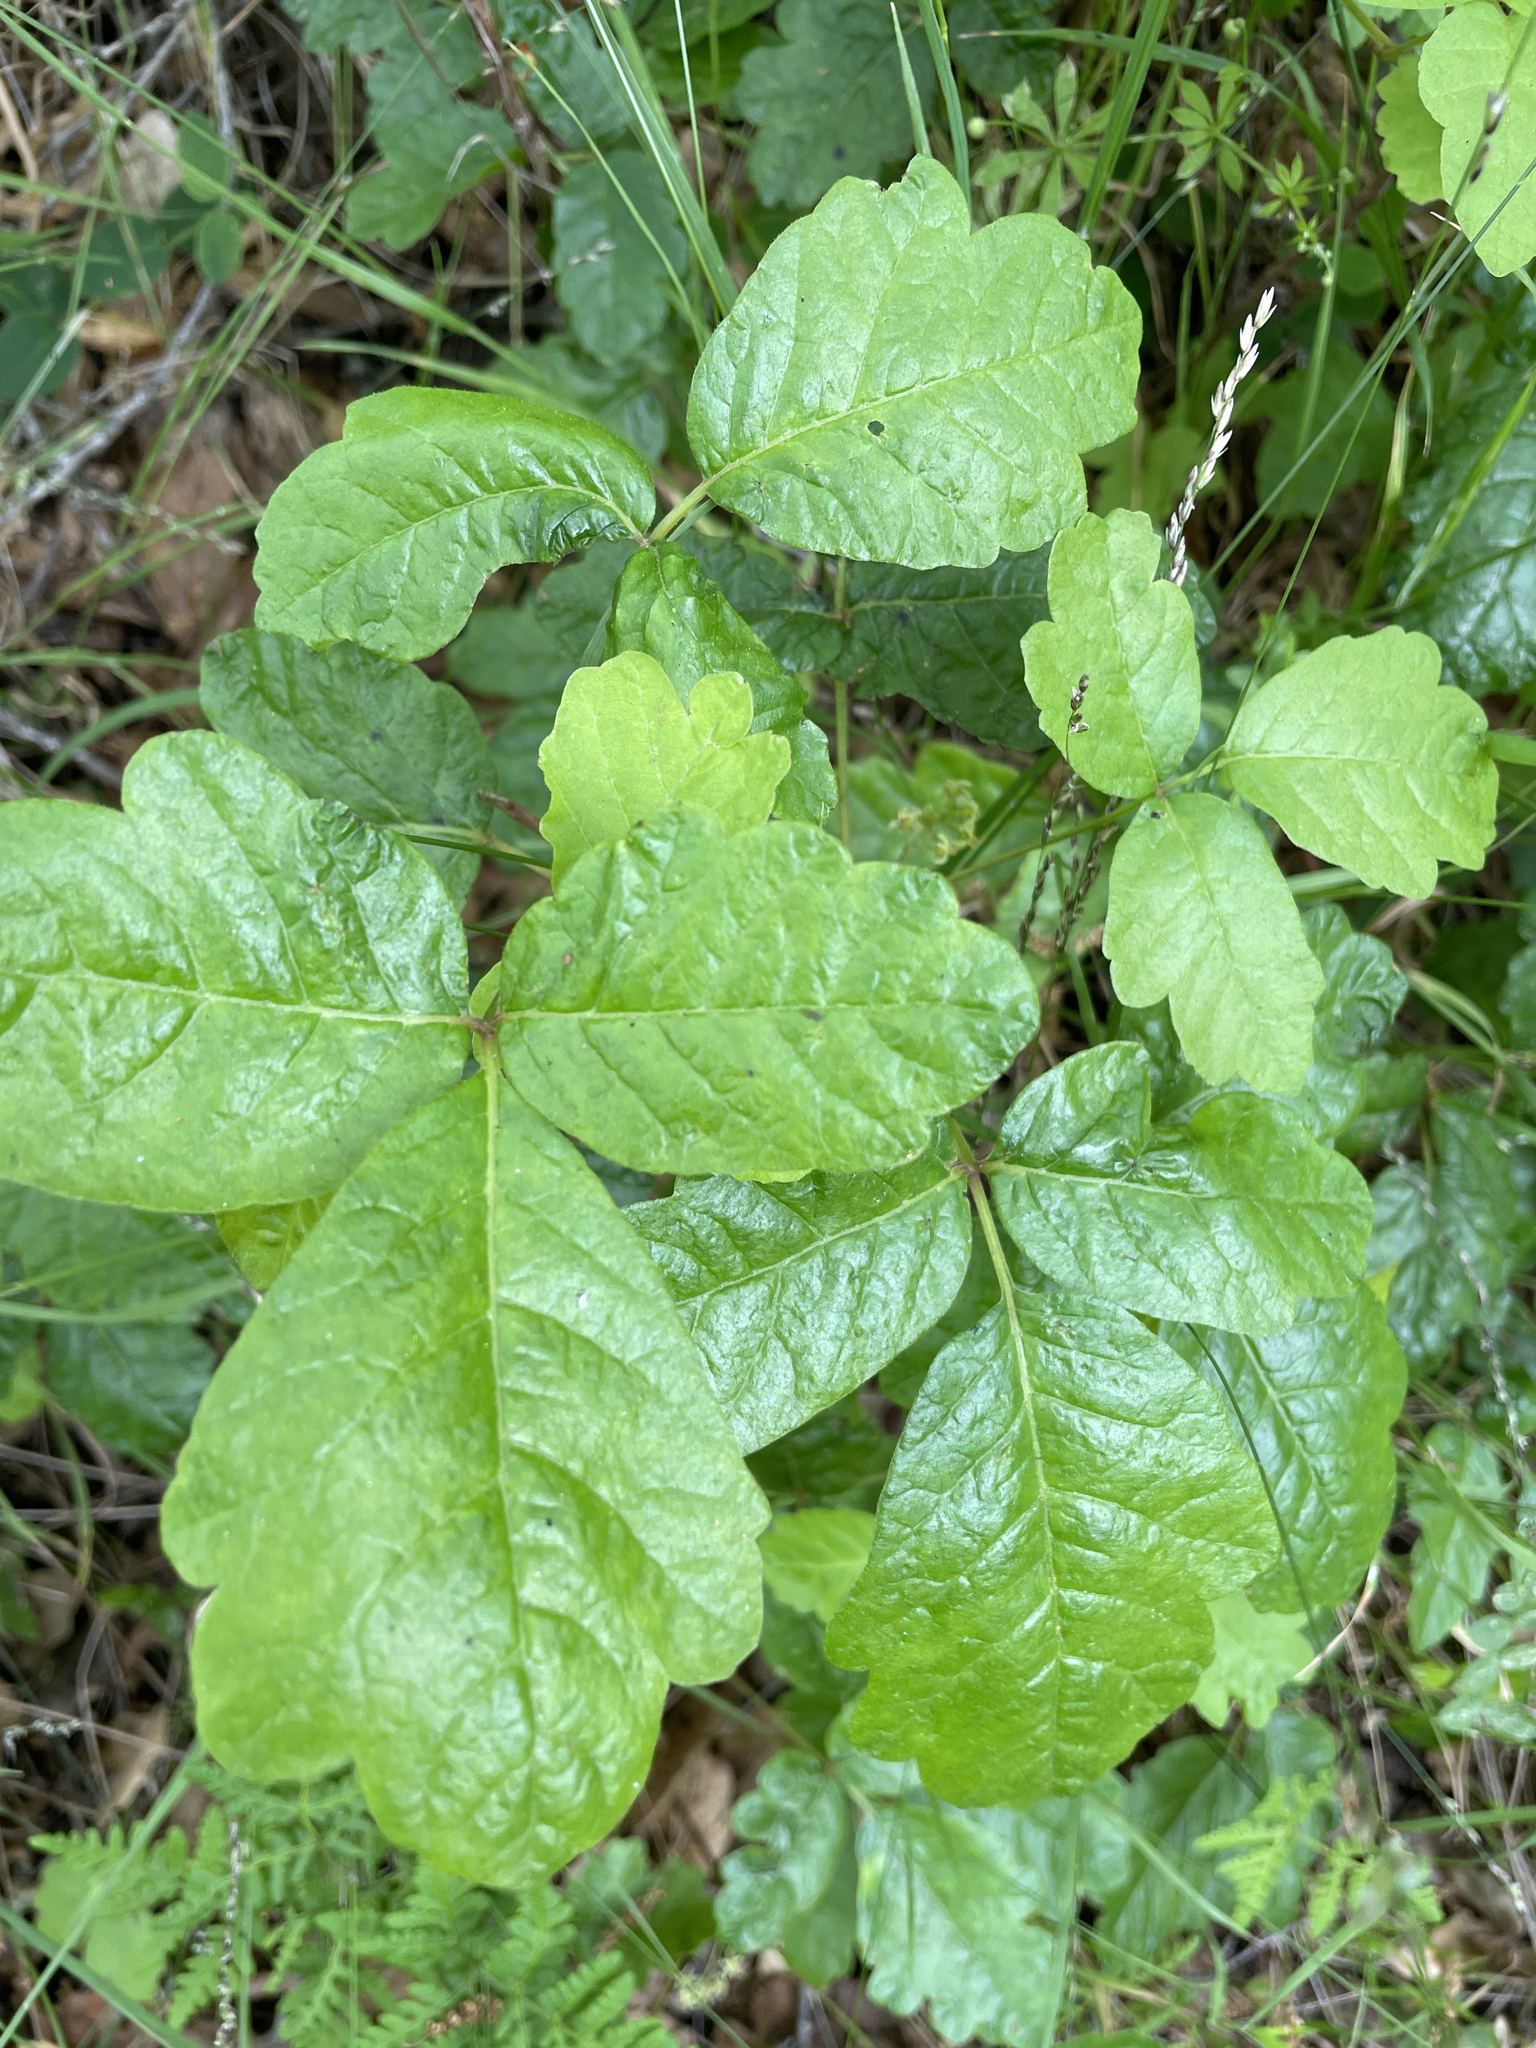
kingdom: Plantae
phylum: Tracheophyta
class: Magnoliopsida
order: Sapindales
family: Anacardiaceae
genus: Toxicodendron
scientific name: Toxicodendron diversilobum
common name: Pacific poison-oak
